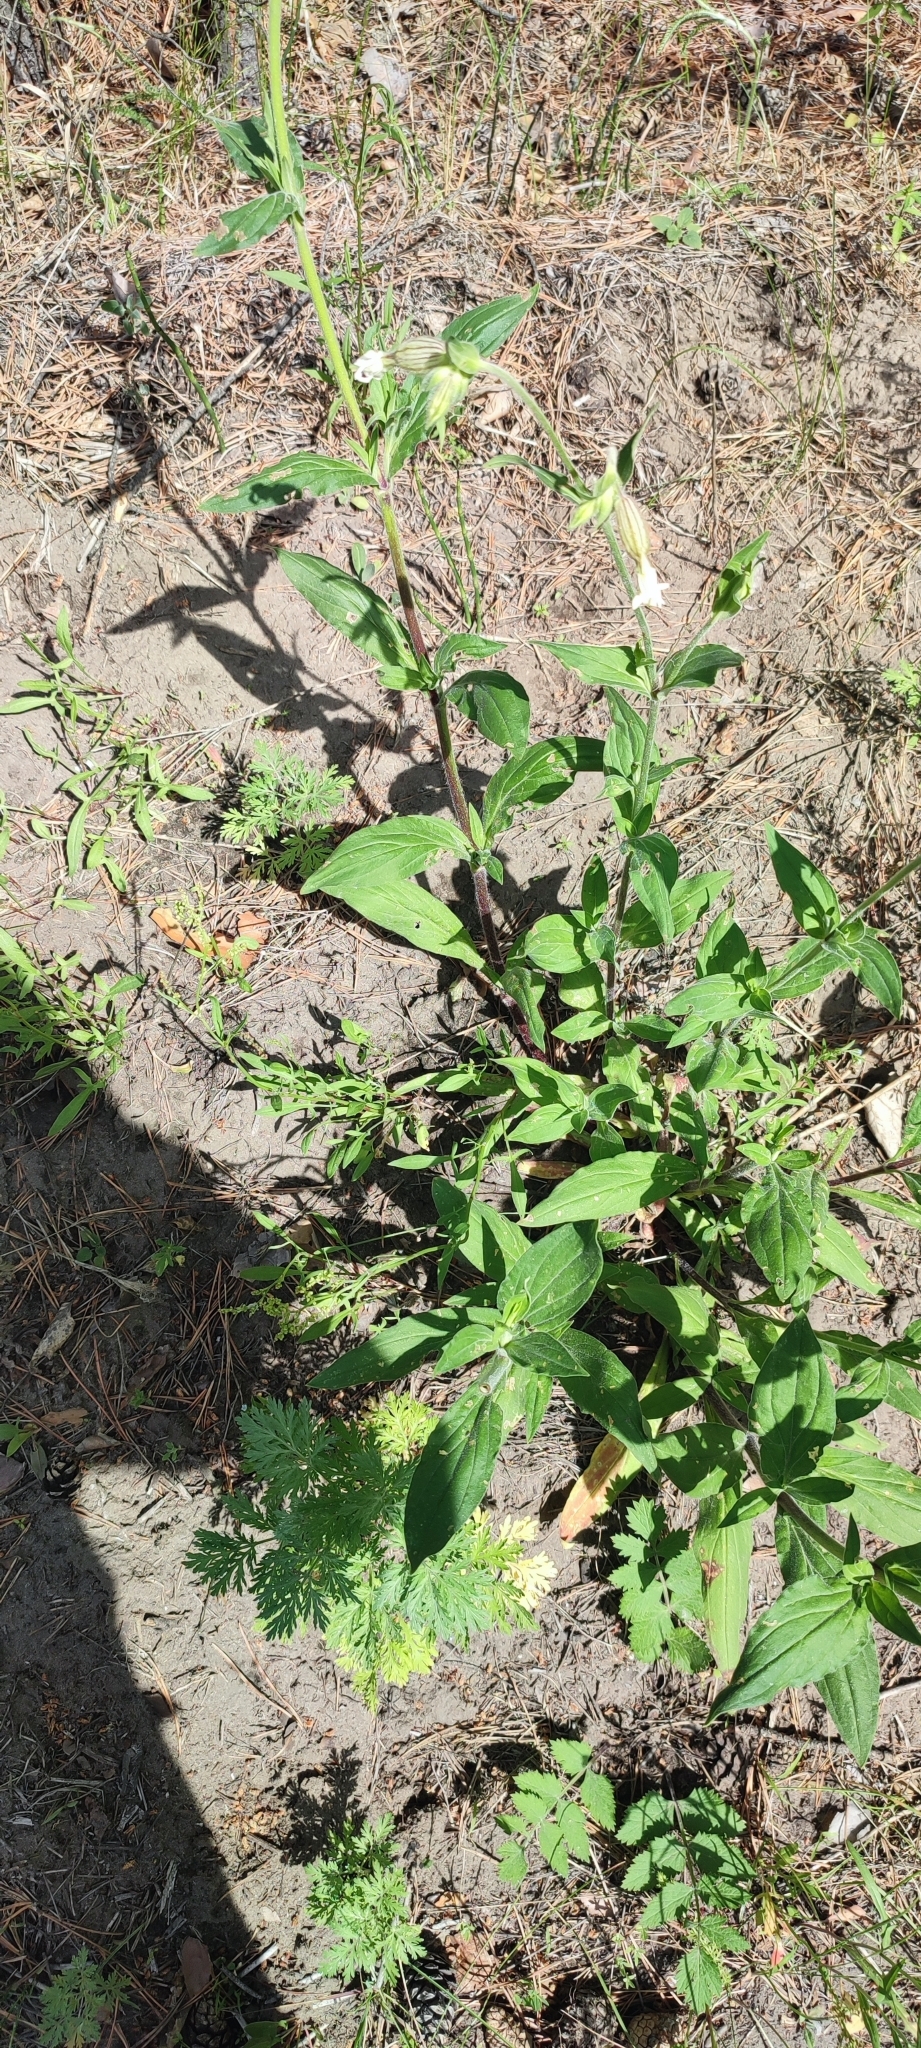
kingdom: Plantae
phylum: Tracheophyta
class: Magnoliopsida
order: Caryophyllales
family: Caryophyllaceae
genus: Silene
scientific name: Silene latifolia
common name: White campion
